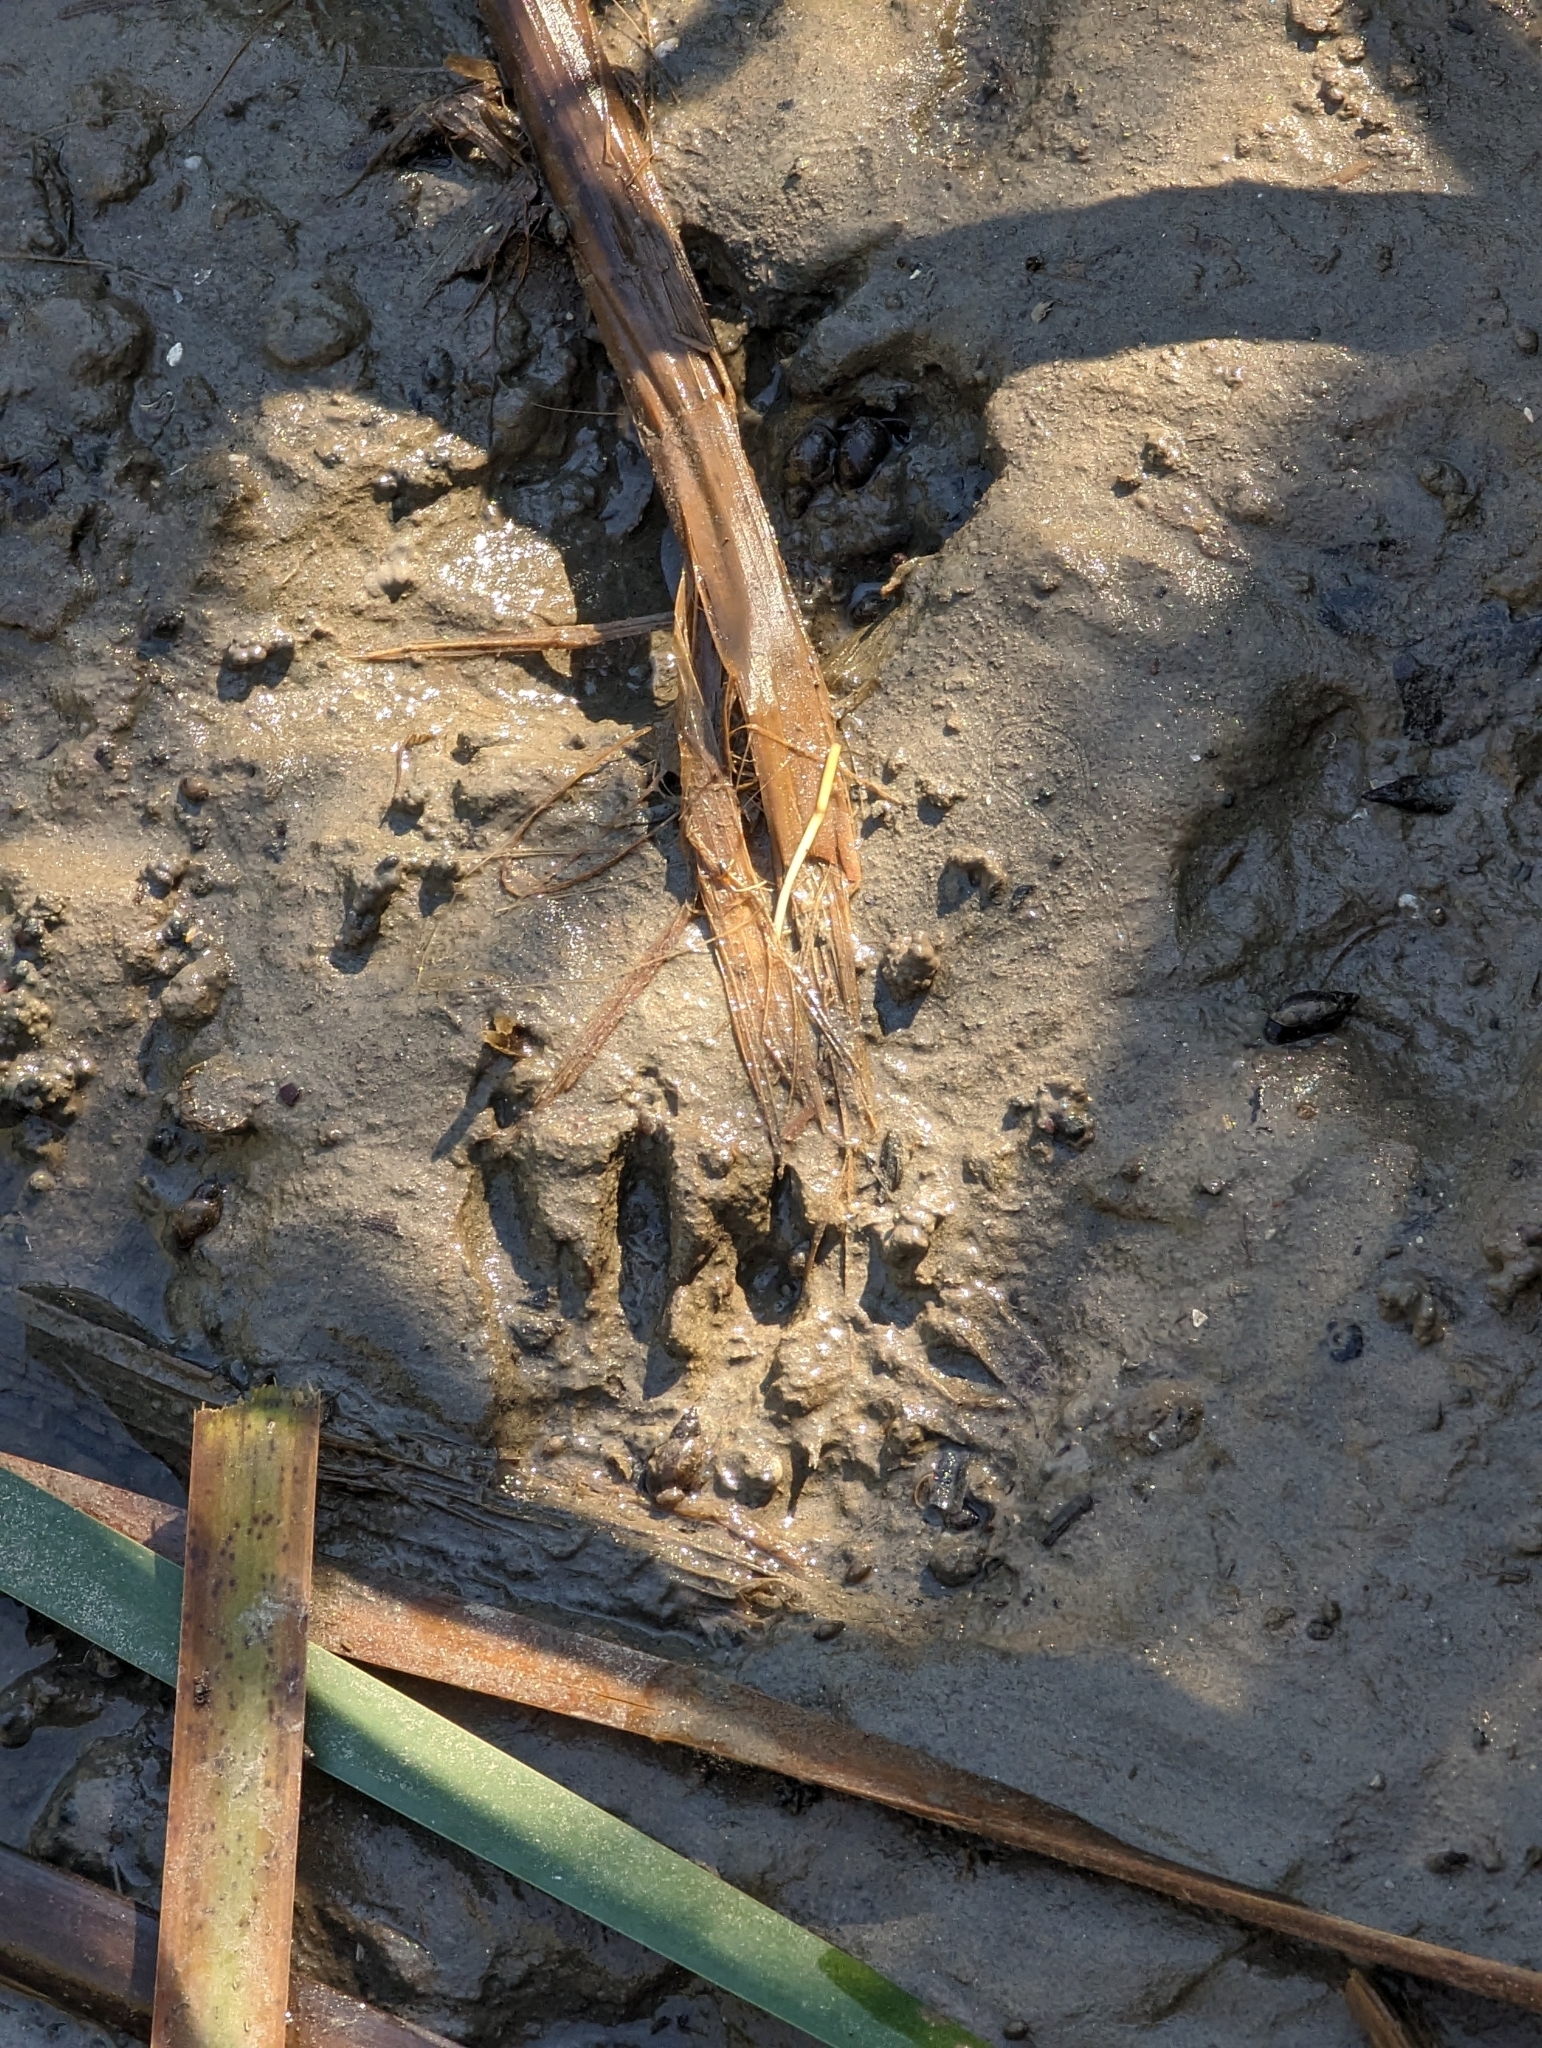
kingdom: Animalia
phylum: Chordata
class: Mammalia
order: Carnivora
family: Procyonidae
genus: Procyon
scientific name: Procyon lotor
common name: Raccoon
